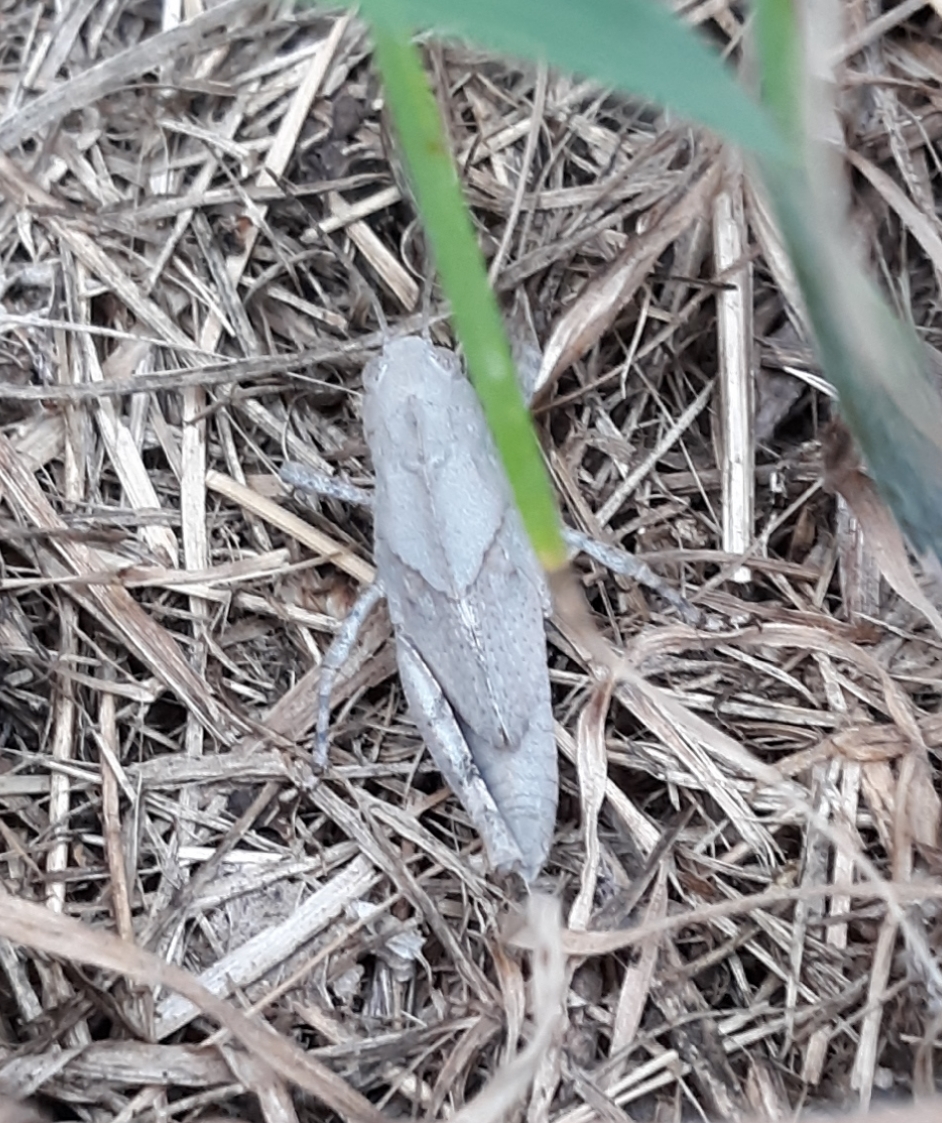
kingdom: Animalia
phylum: Arthropoda
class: Insecta
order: Orthoptera
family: Acrididae
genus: Dissosteira
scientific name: Dissosteira carolina
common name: Carolina grasshopper
